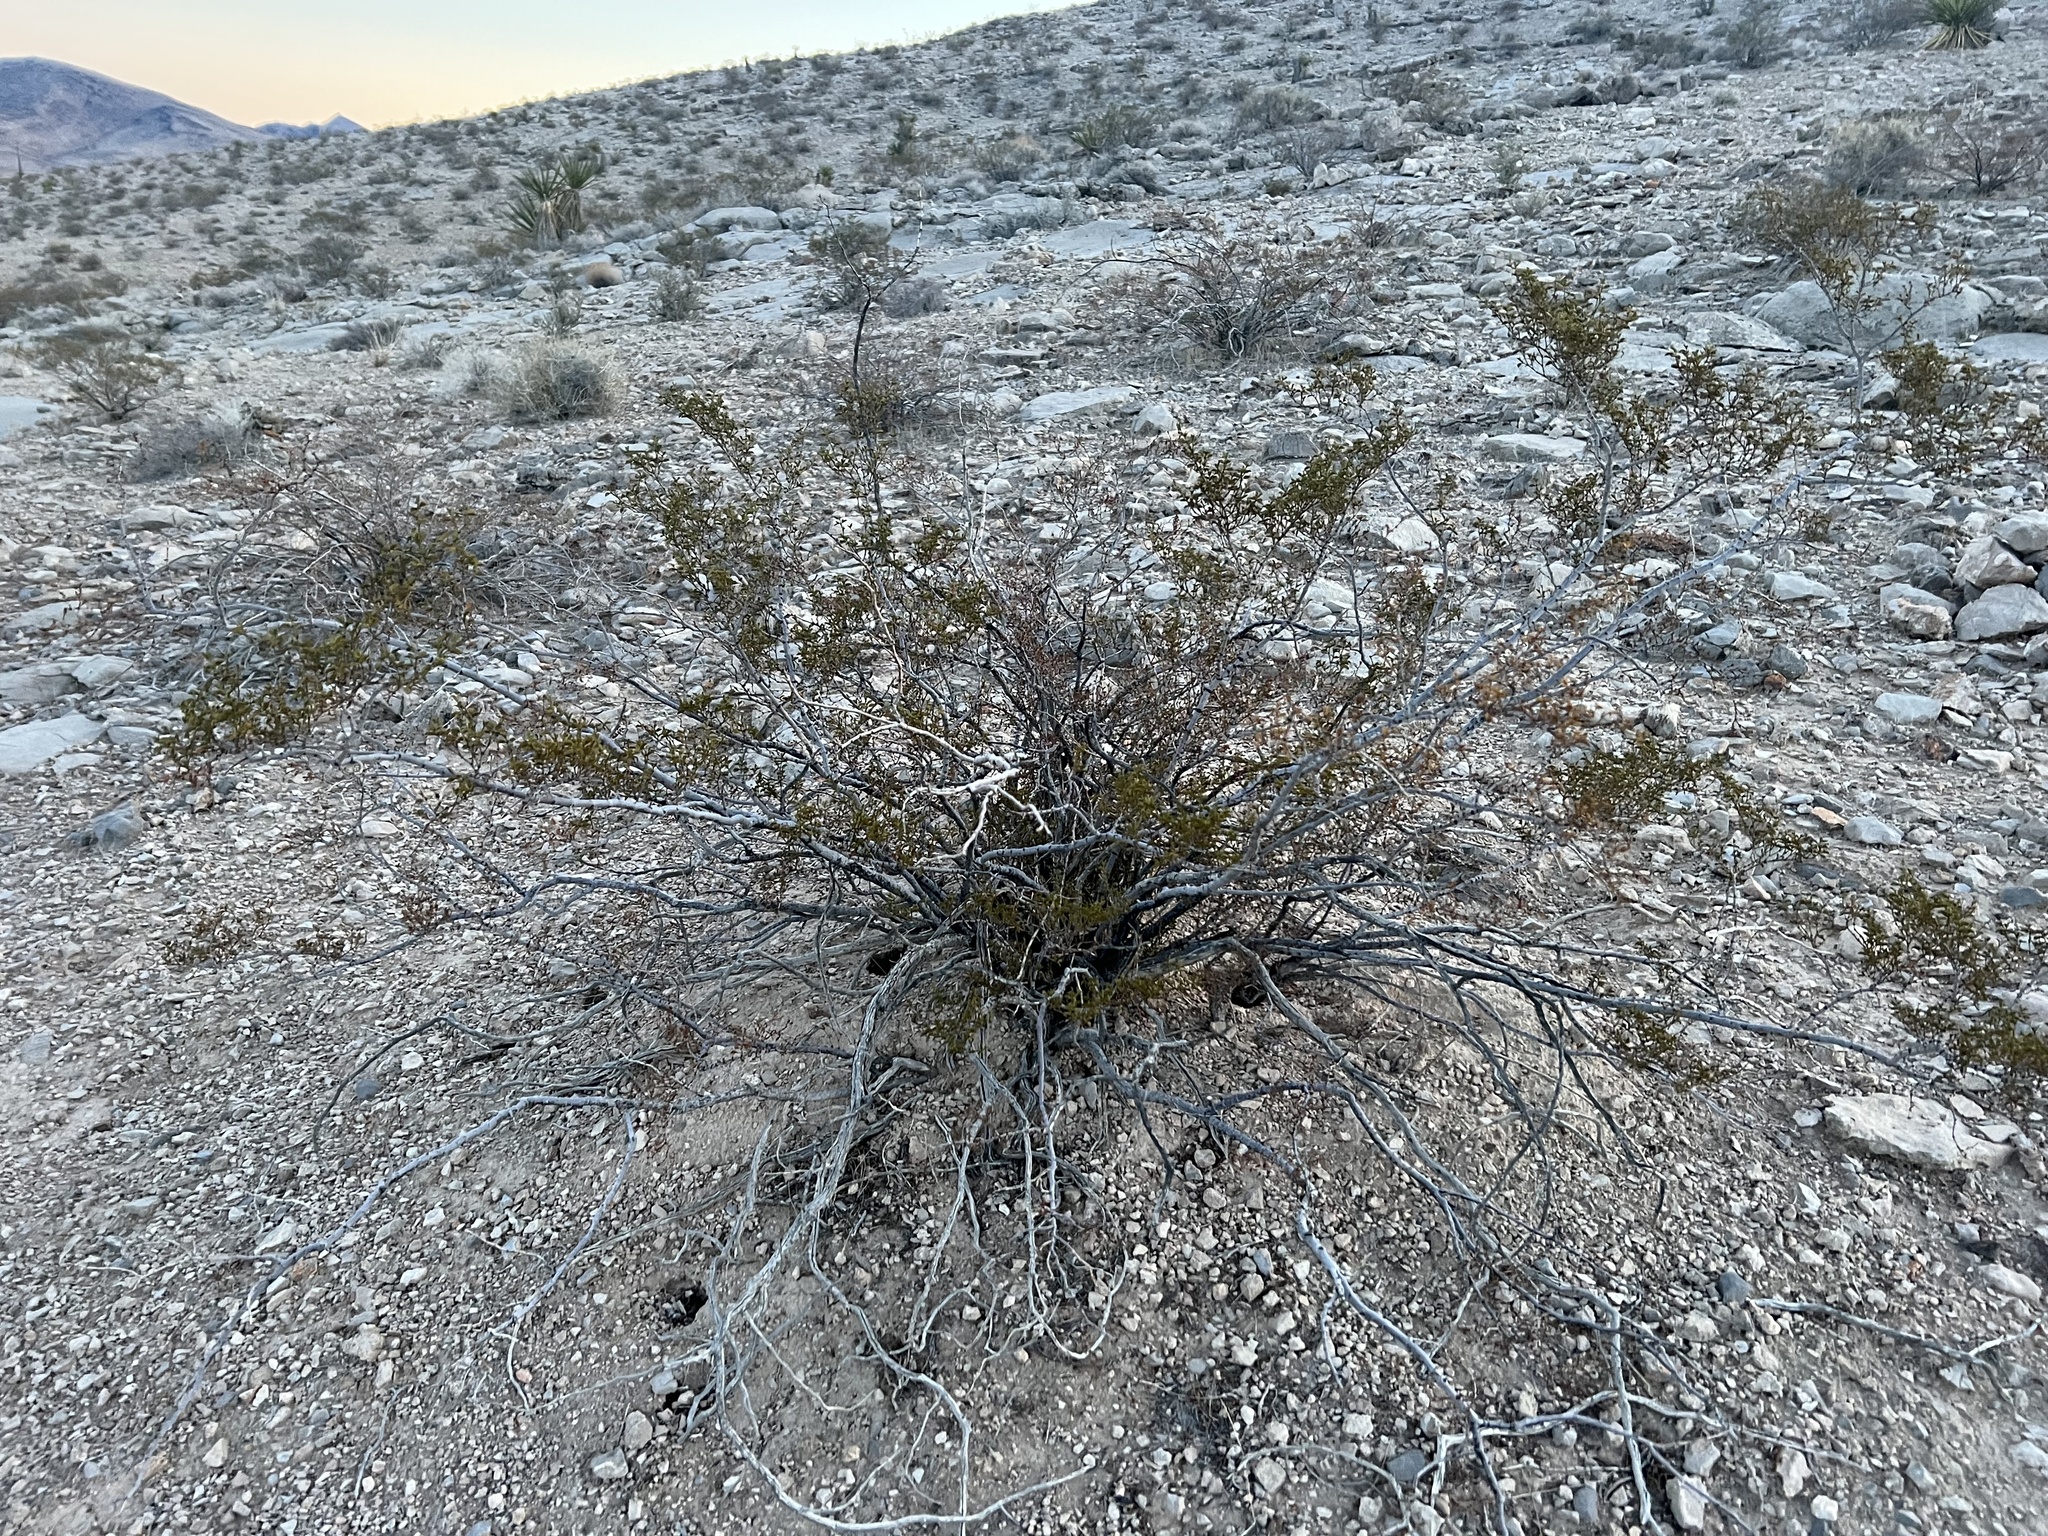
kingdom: Plantae
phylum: Tracheophyta
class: Magnoliopsida
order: Zygophyllales
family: Zygophyllaceae
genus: Larrea
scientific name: Larrea tridentata
